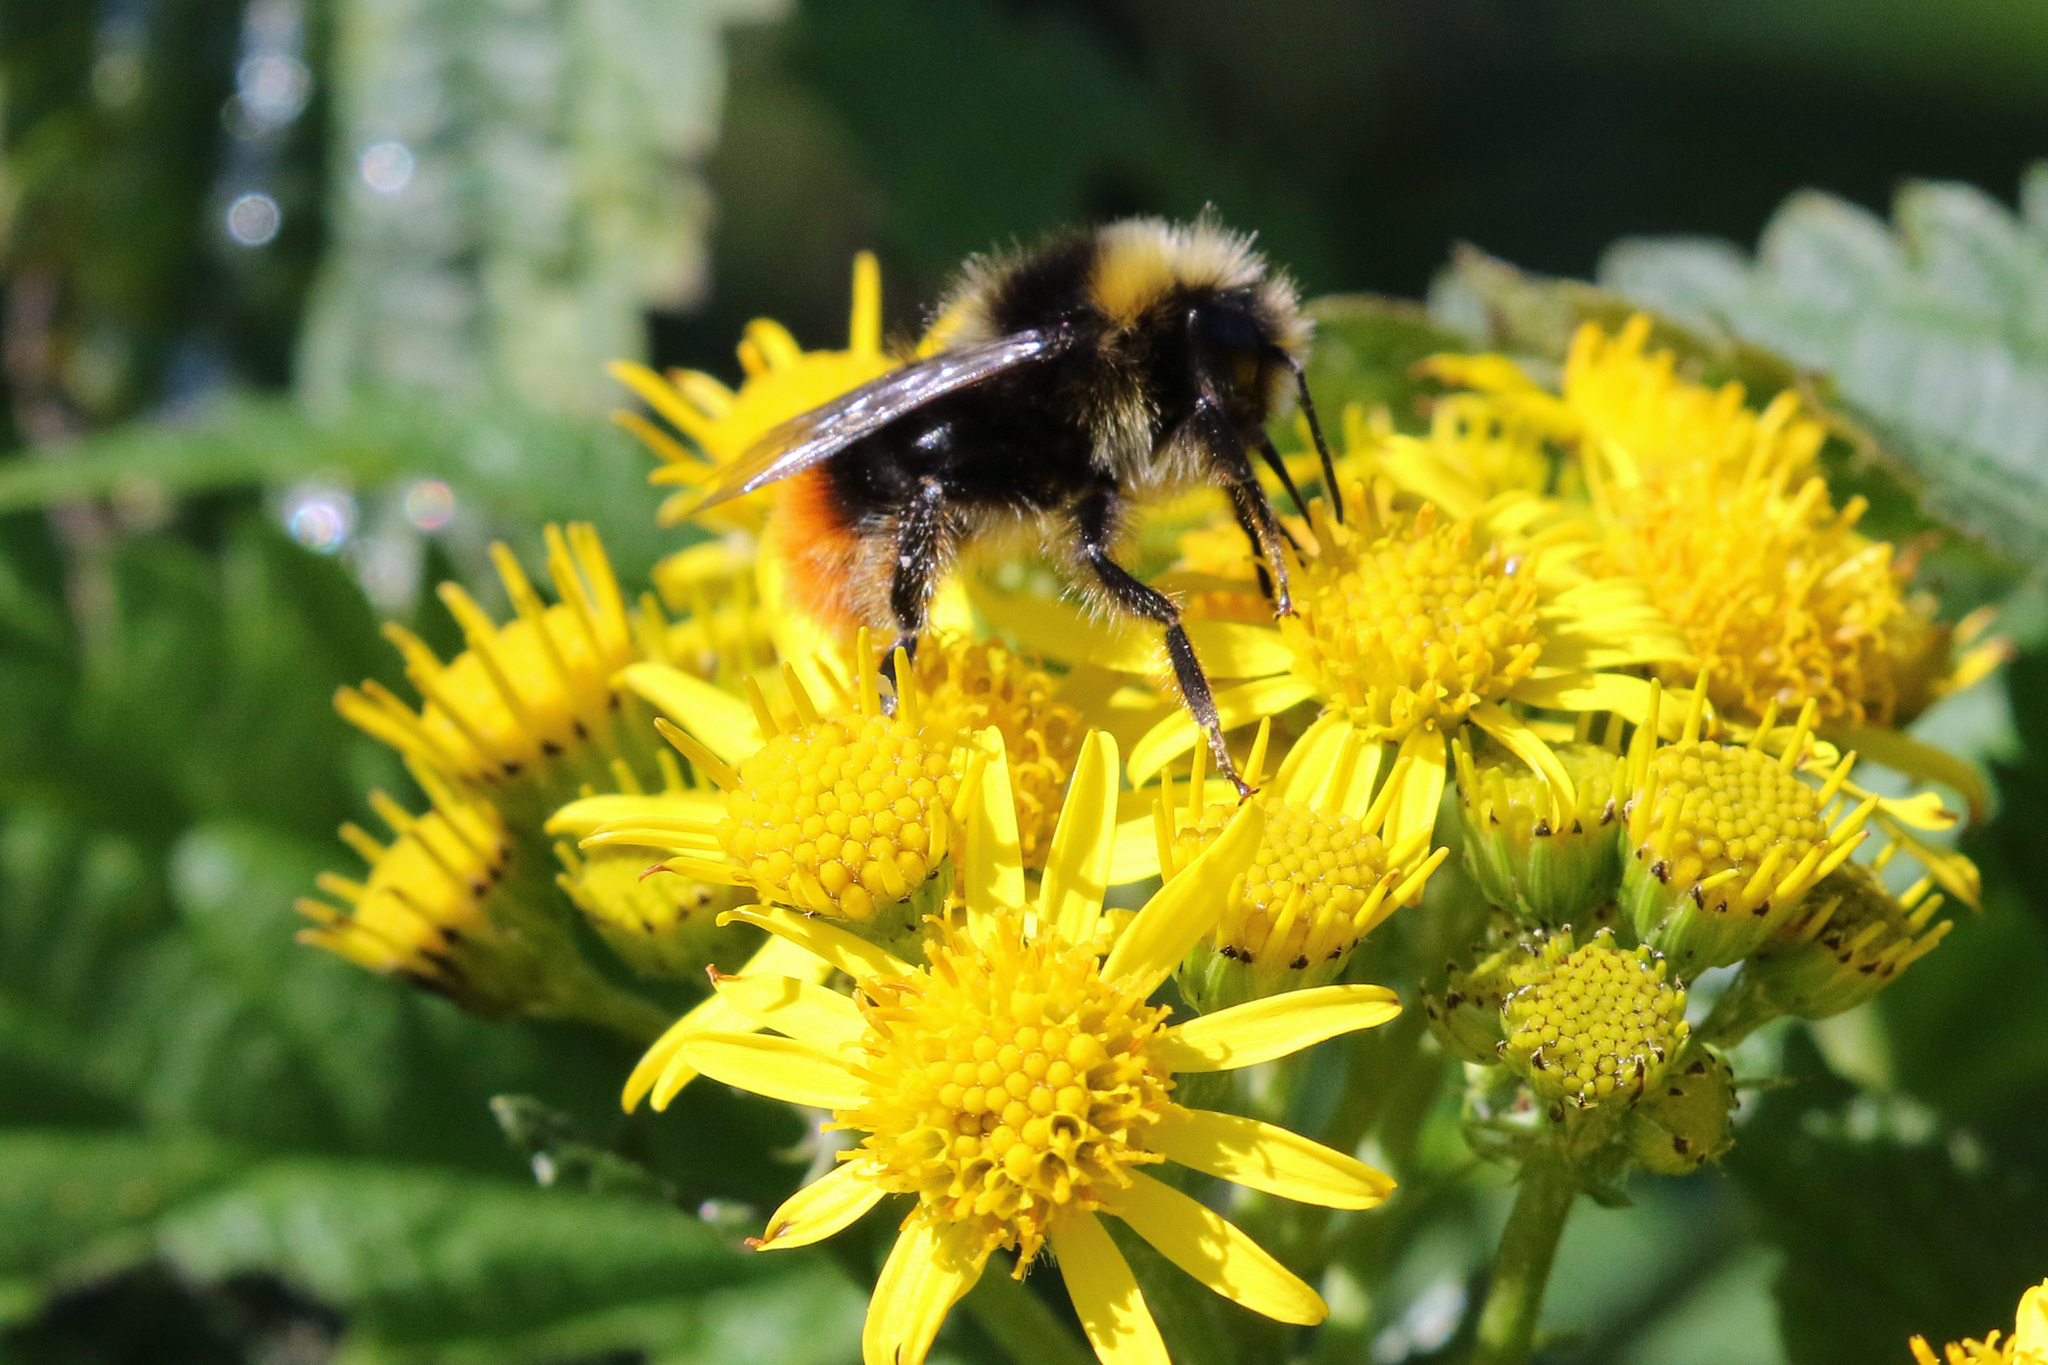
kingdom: Animalia
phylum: Arthropoda
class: Insecta
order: Hymenoptera
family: Apidae
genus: Bombus
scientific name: Bombus lapidarius
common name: Large red-tailed humble-bee
